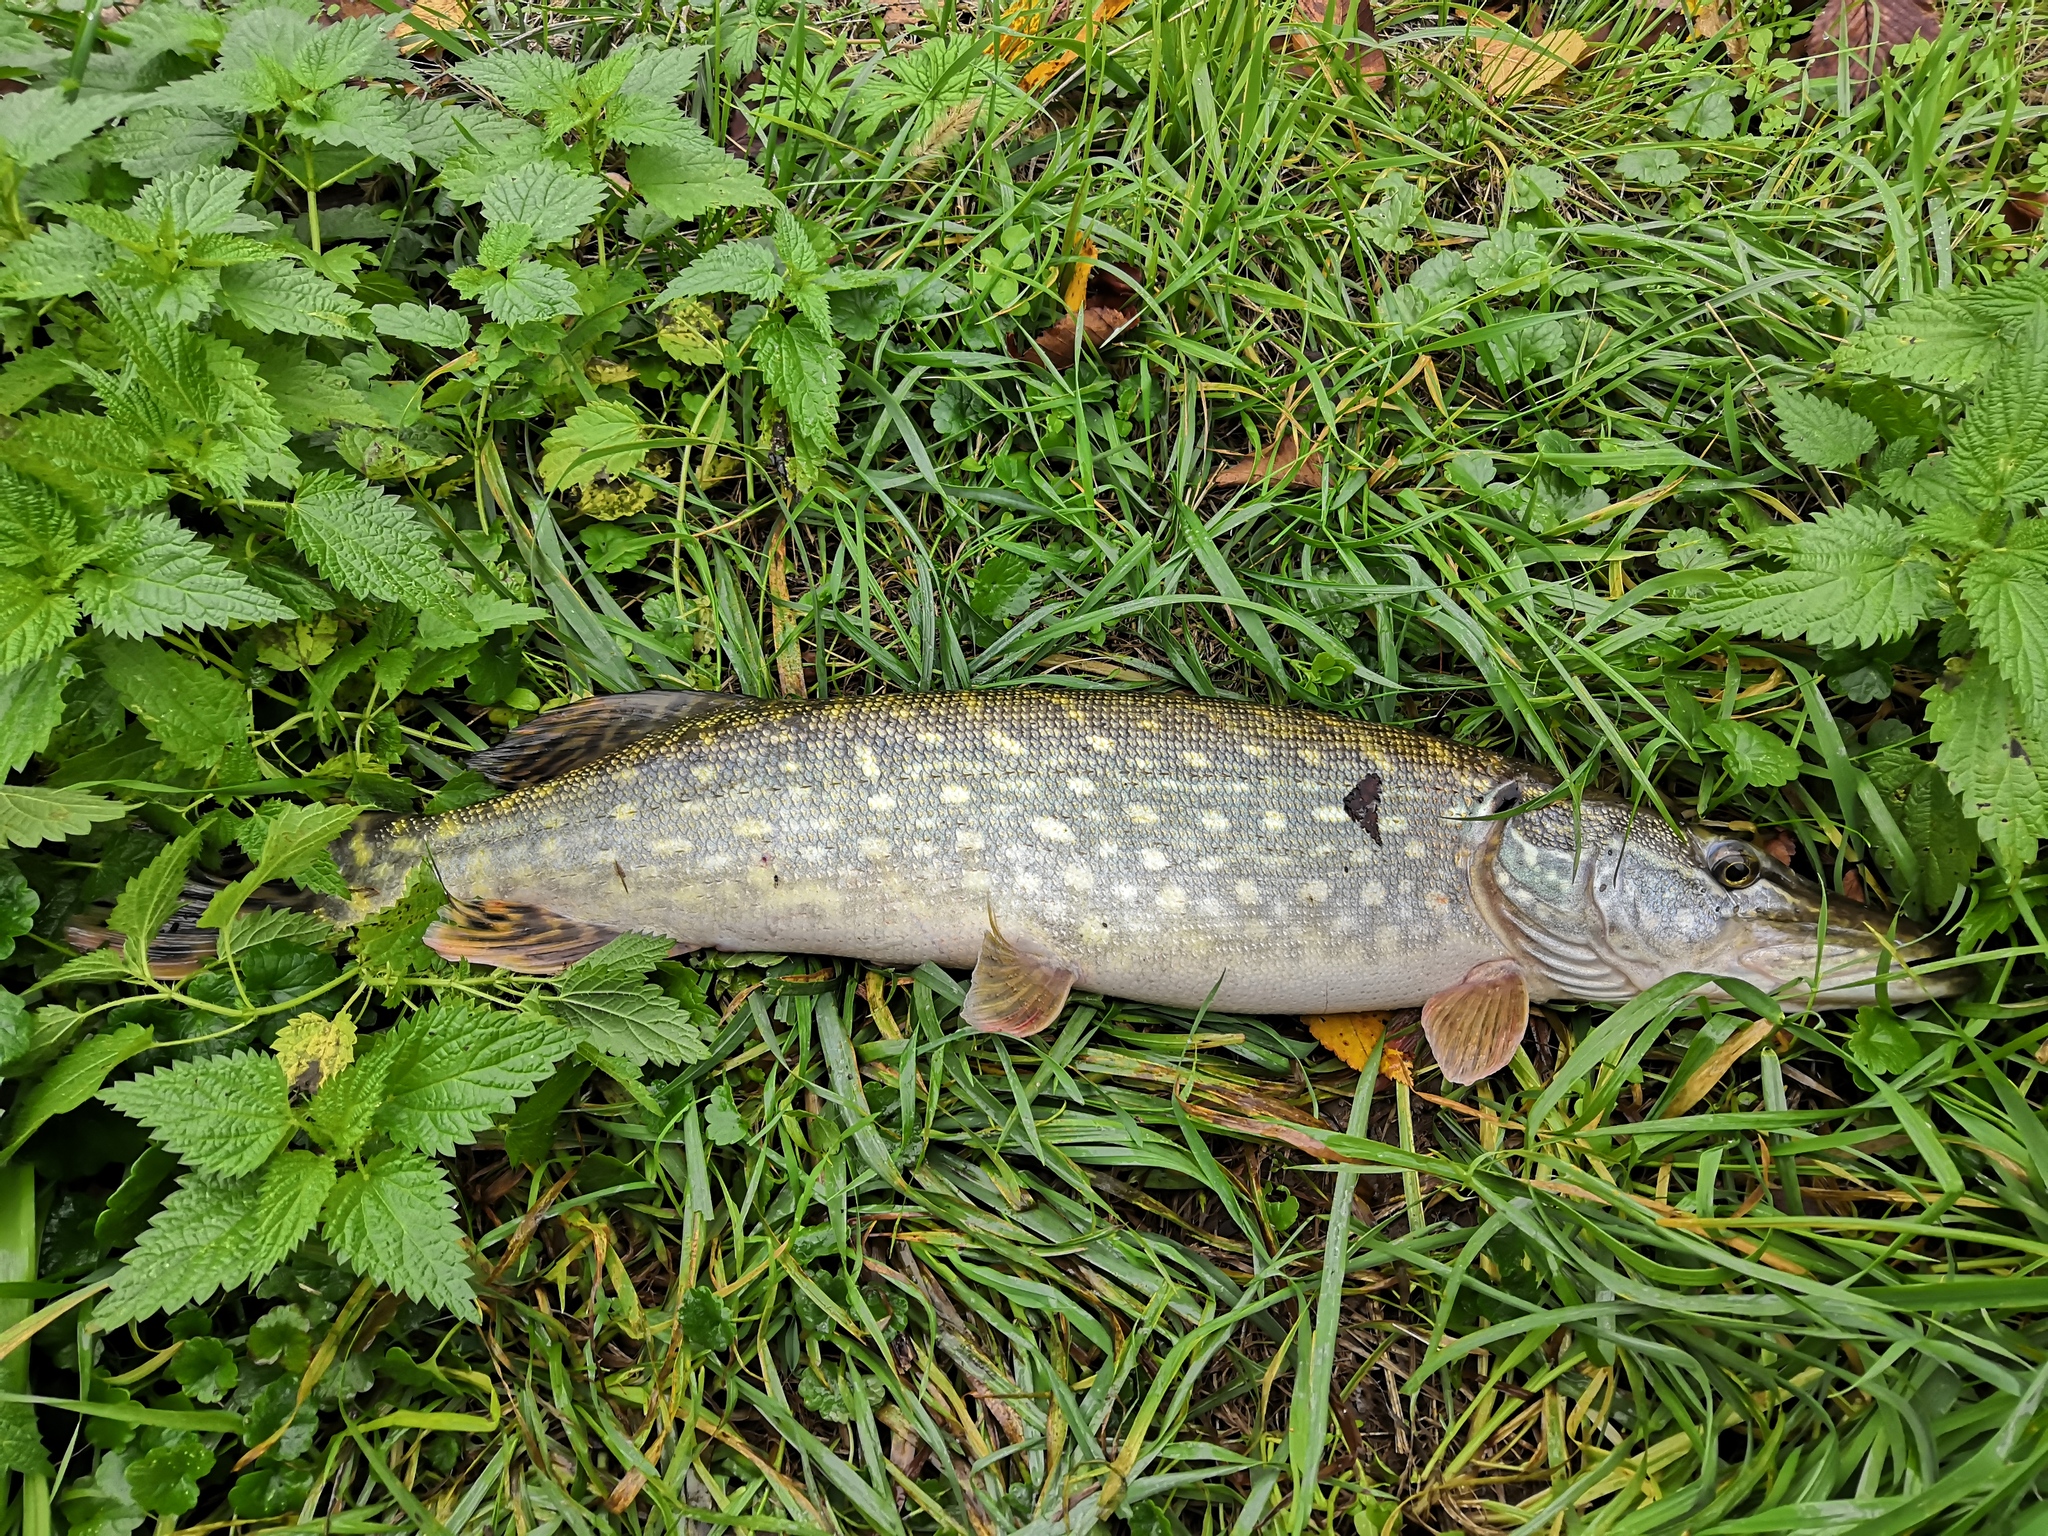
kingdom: Animalia
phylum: Chordata
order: Esociformes
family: Esocidae
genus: Esox
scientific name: Esox lucius
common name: Northern pike
